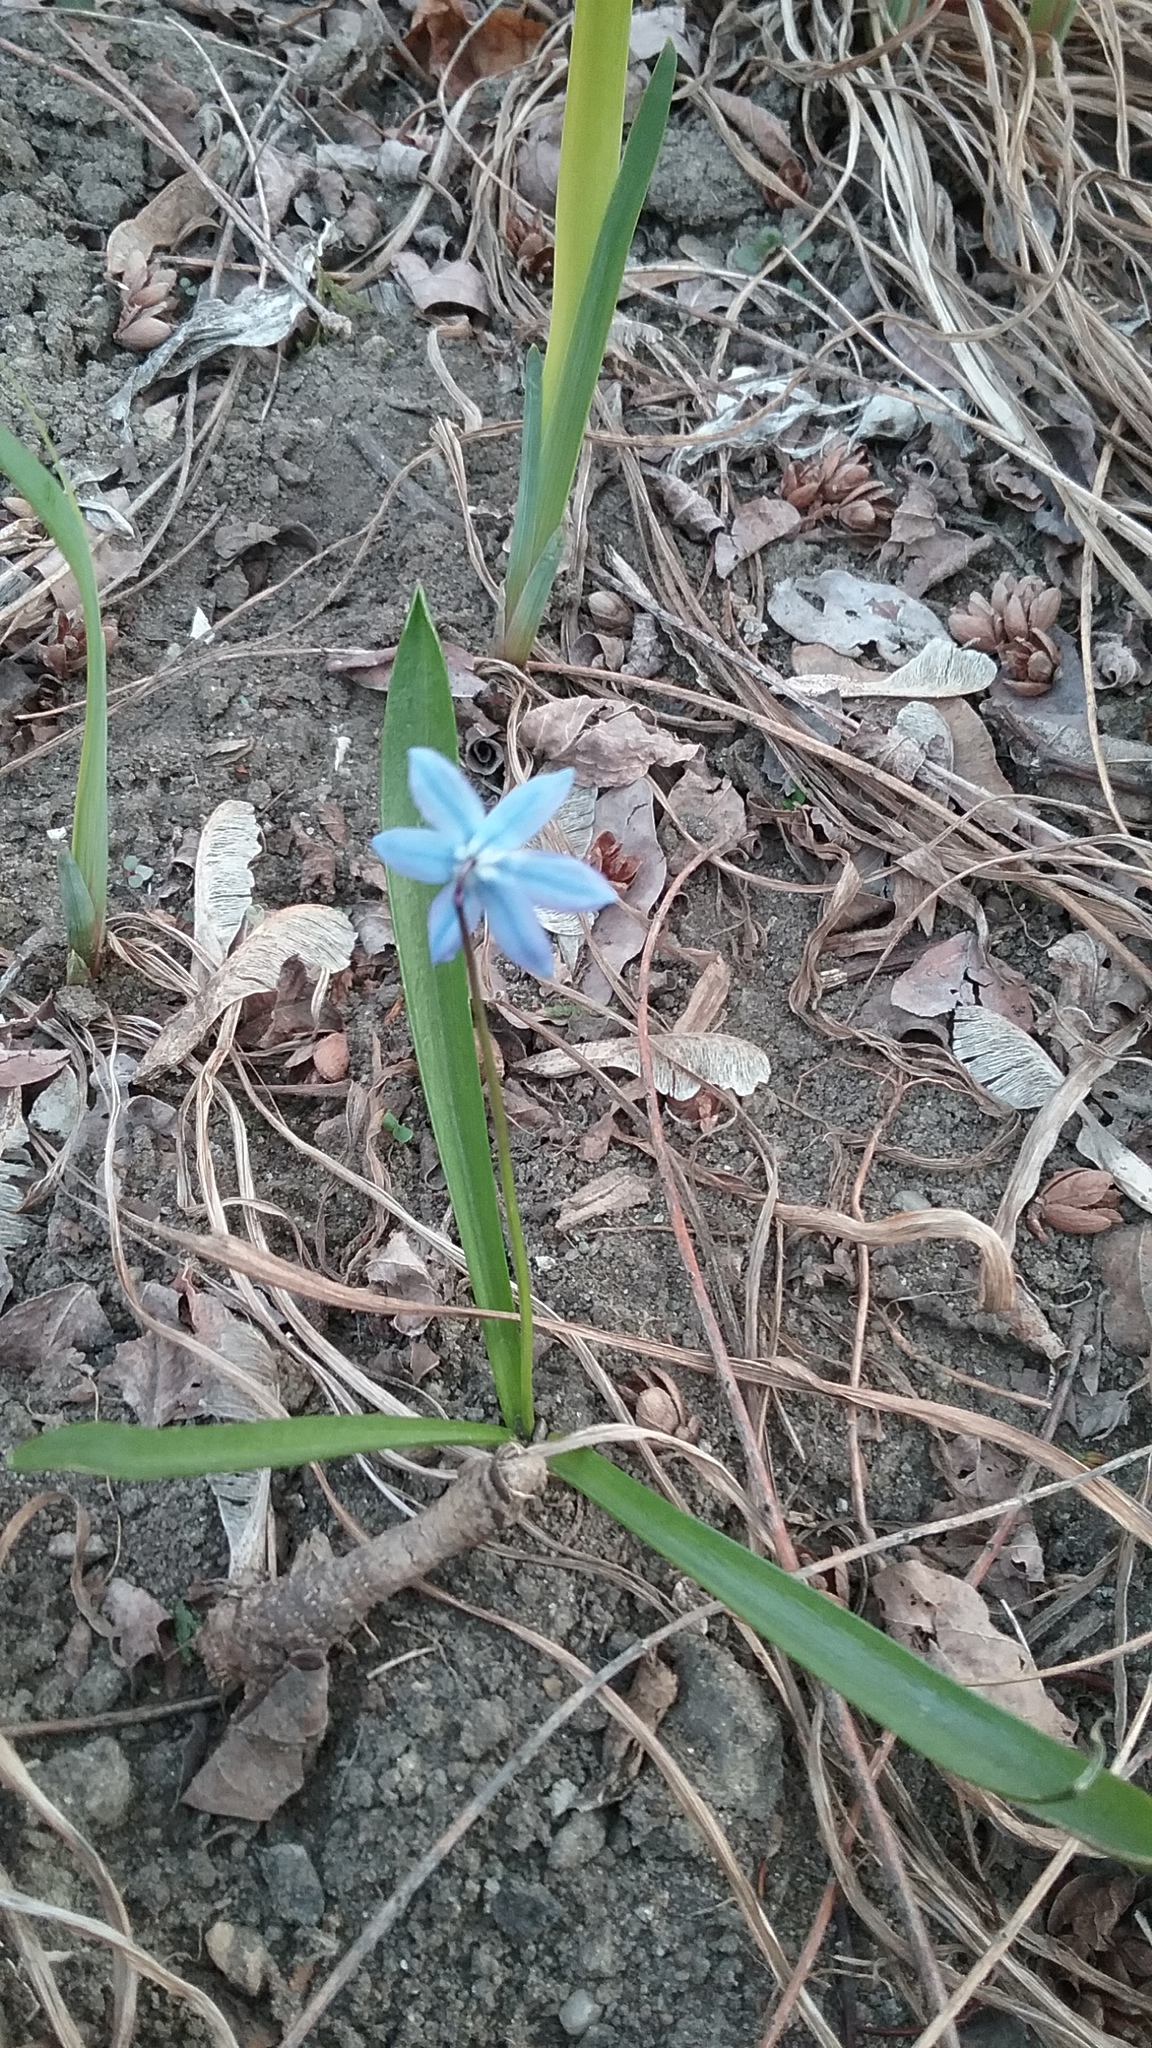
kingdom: Plantae
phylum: Tracheophyta
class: Liliopsida
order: Asparagales
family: Asparagaceae
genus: Scilla
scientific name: Scilla siberica
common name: Siberian squill
